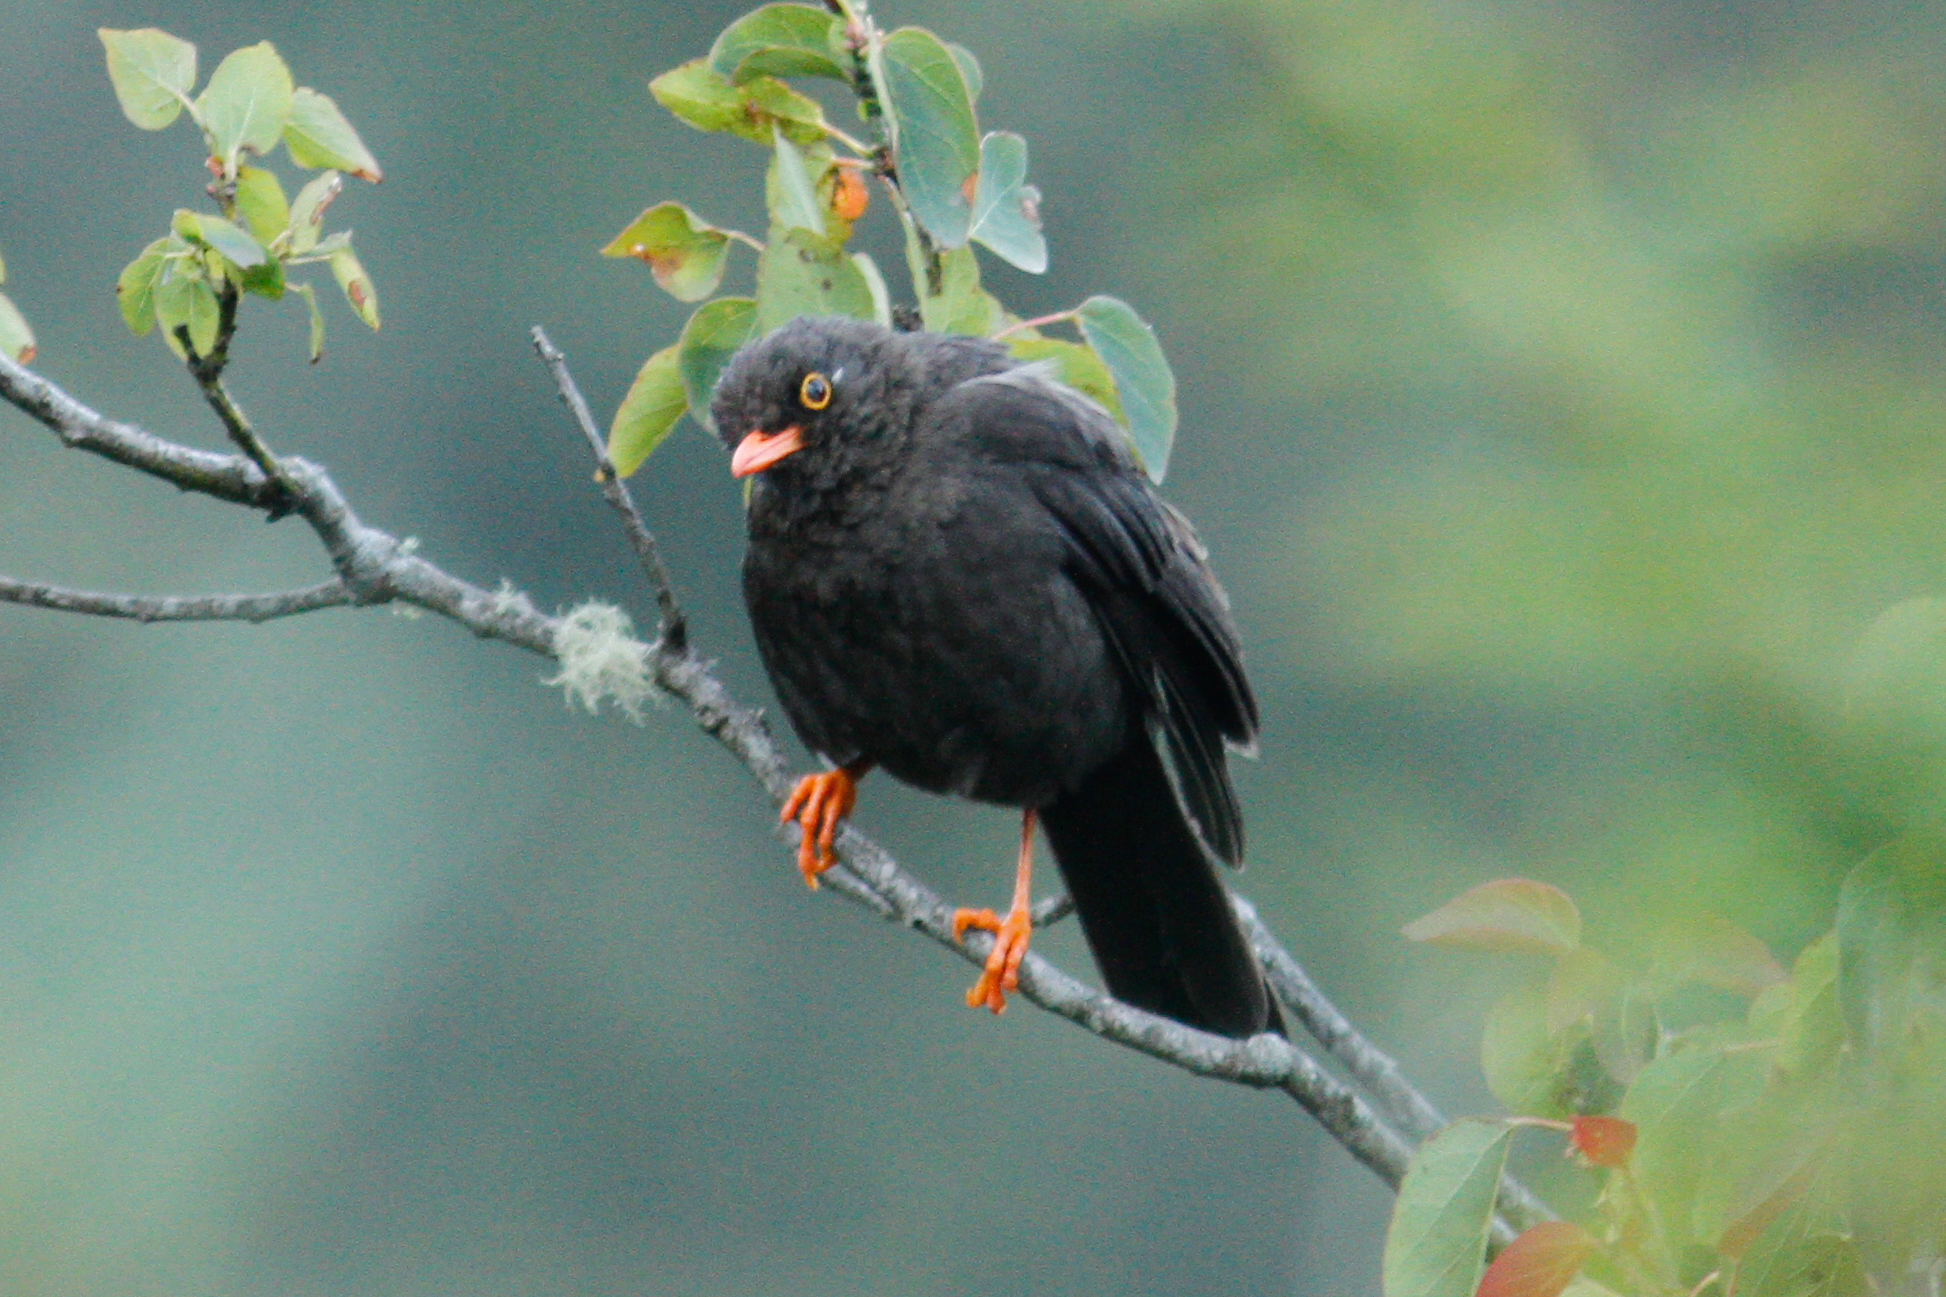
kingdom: Animalia
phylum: Chordata
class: Aves
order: Passeriformes
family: Turdidae
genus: Turdus
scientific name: Turdus fuscater
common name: Great thrush
